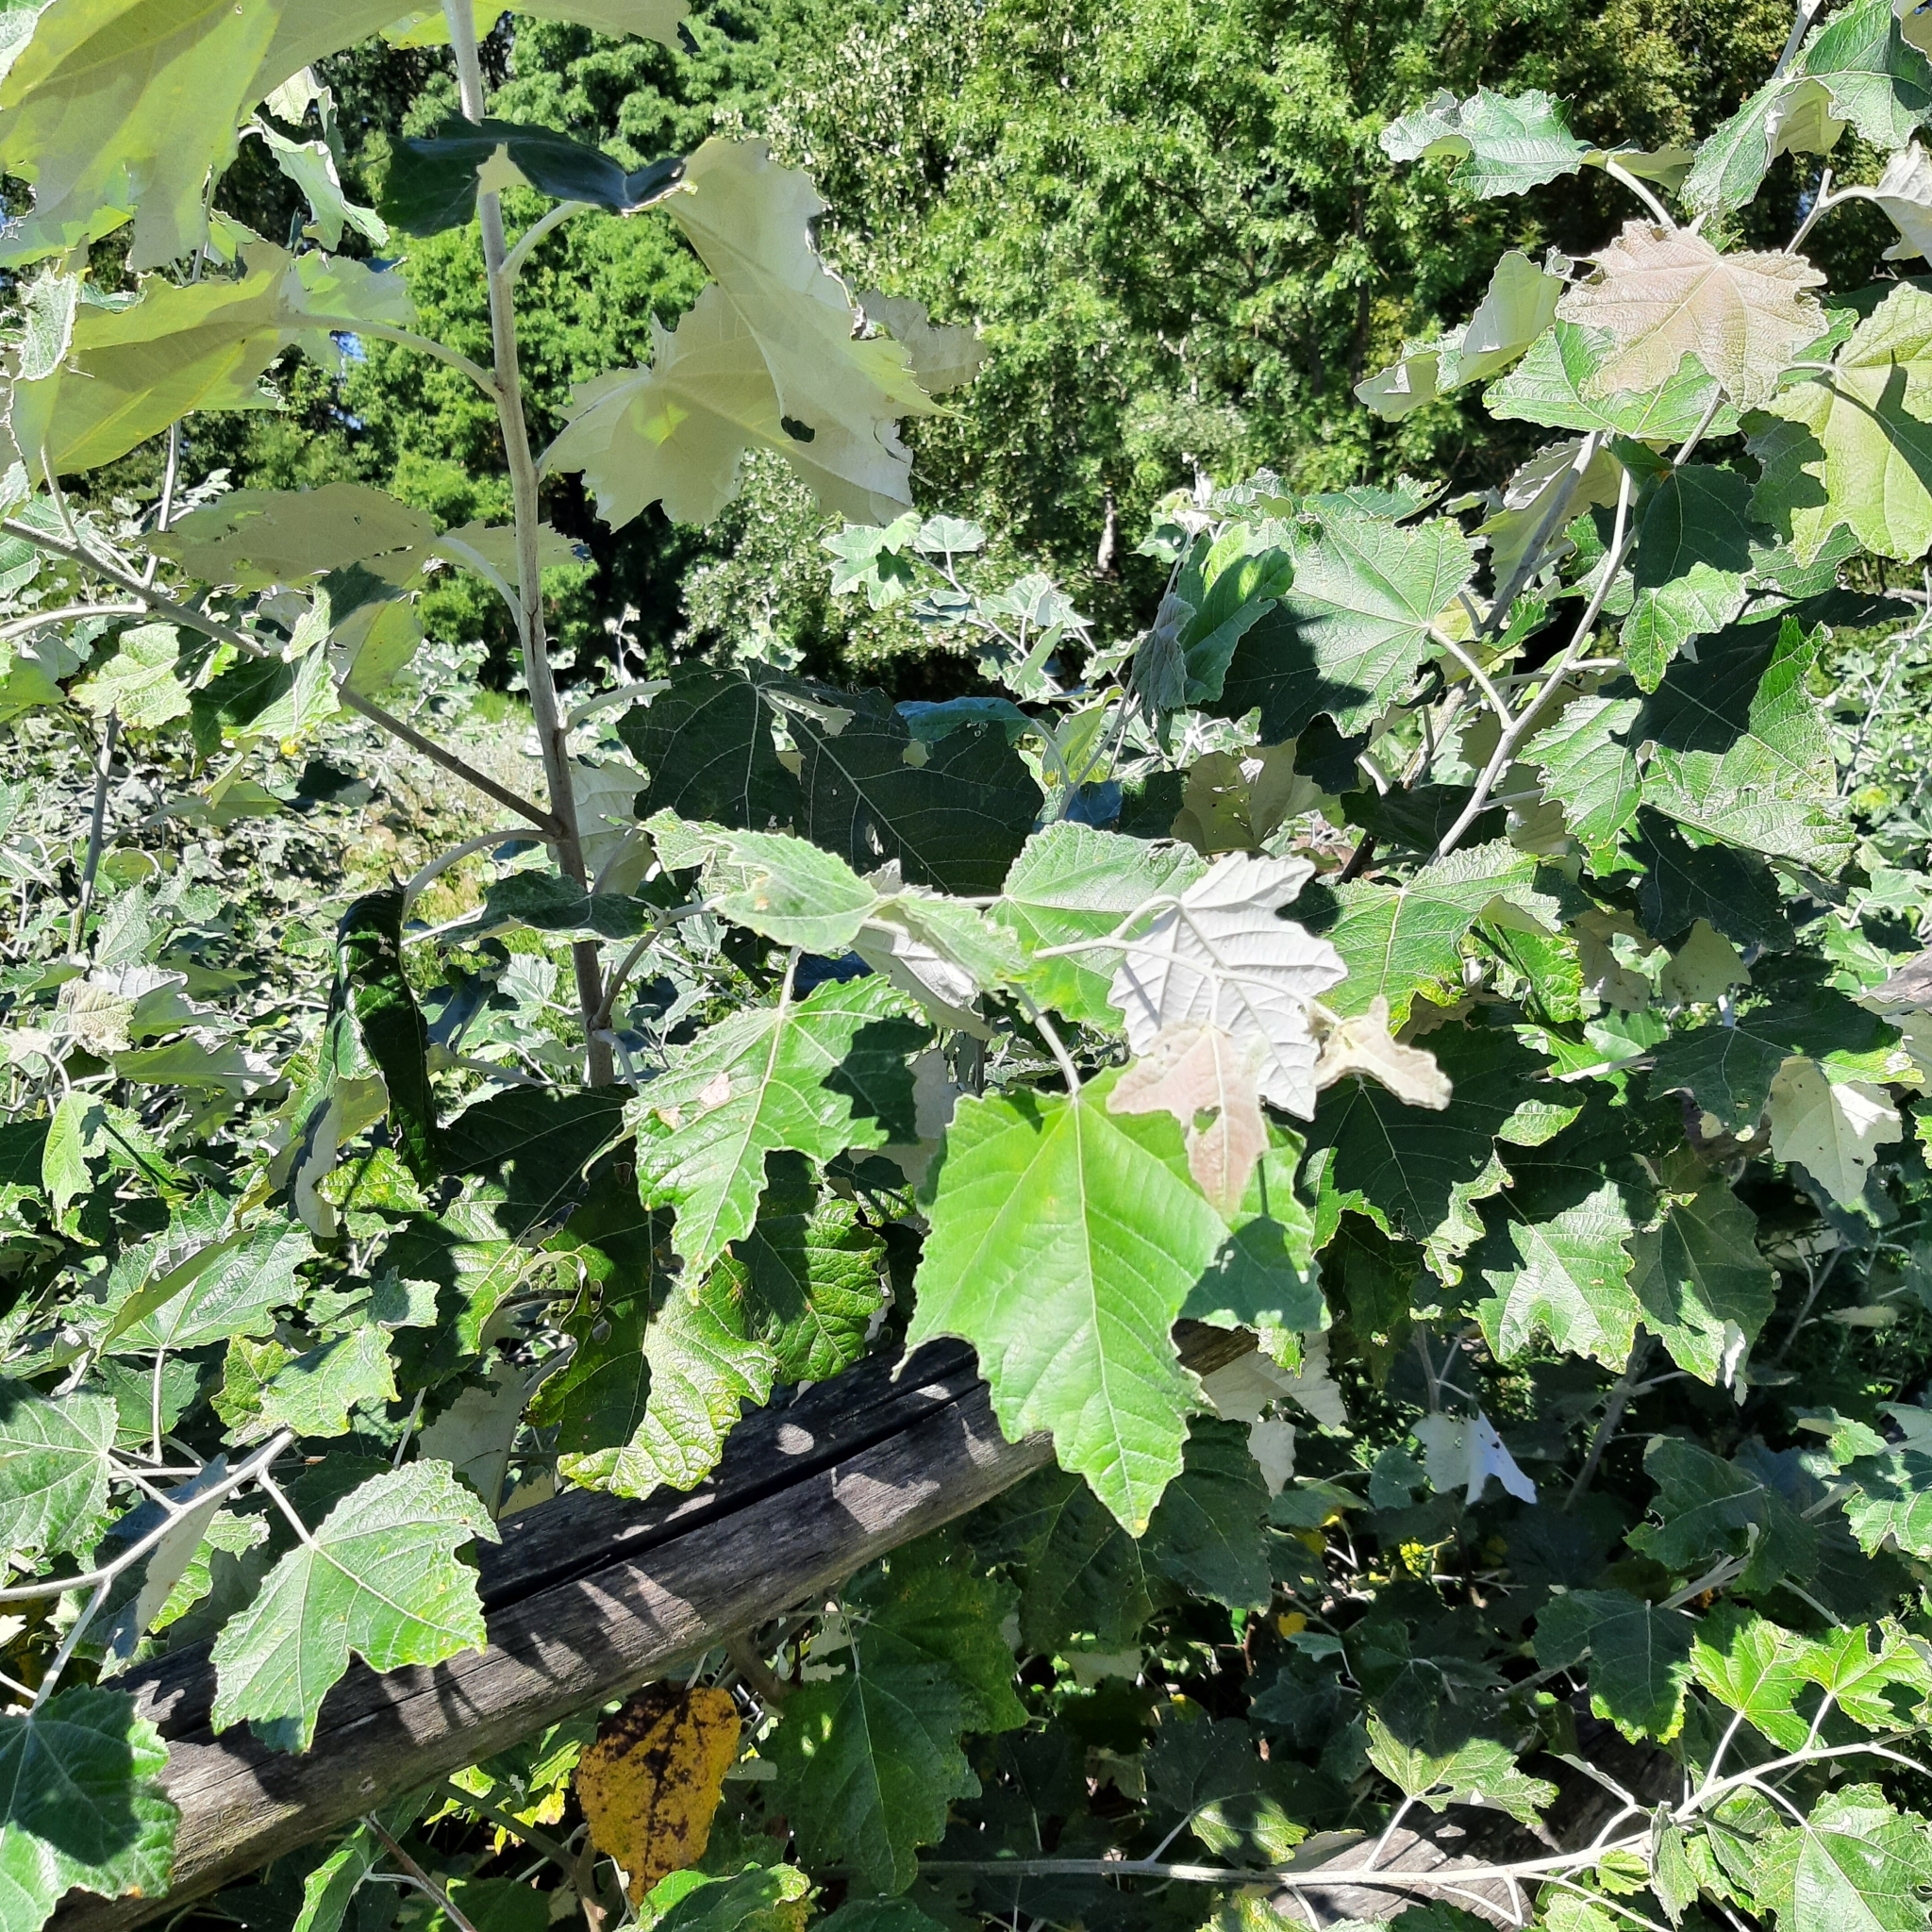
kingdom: Plantae
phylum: Tracheophyta
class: Magnoliopsida
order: Malpighiales
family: Salicaceae
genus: Populus
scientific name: Populus alba
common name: White poplar
